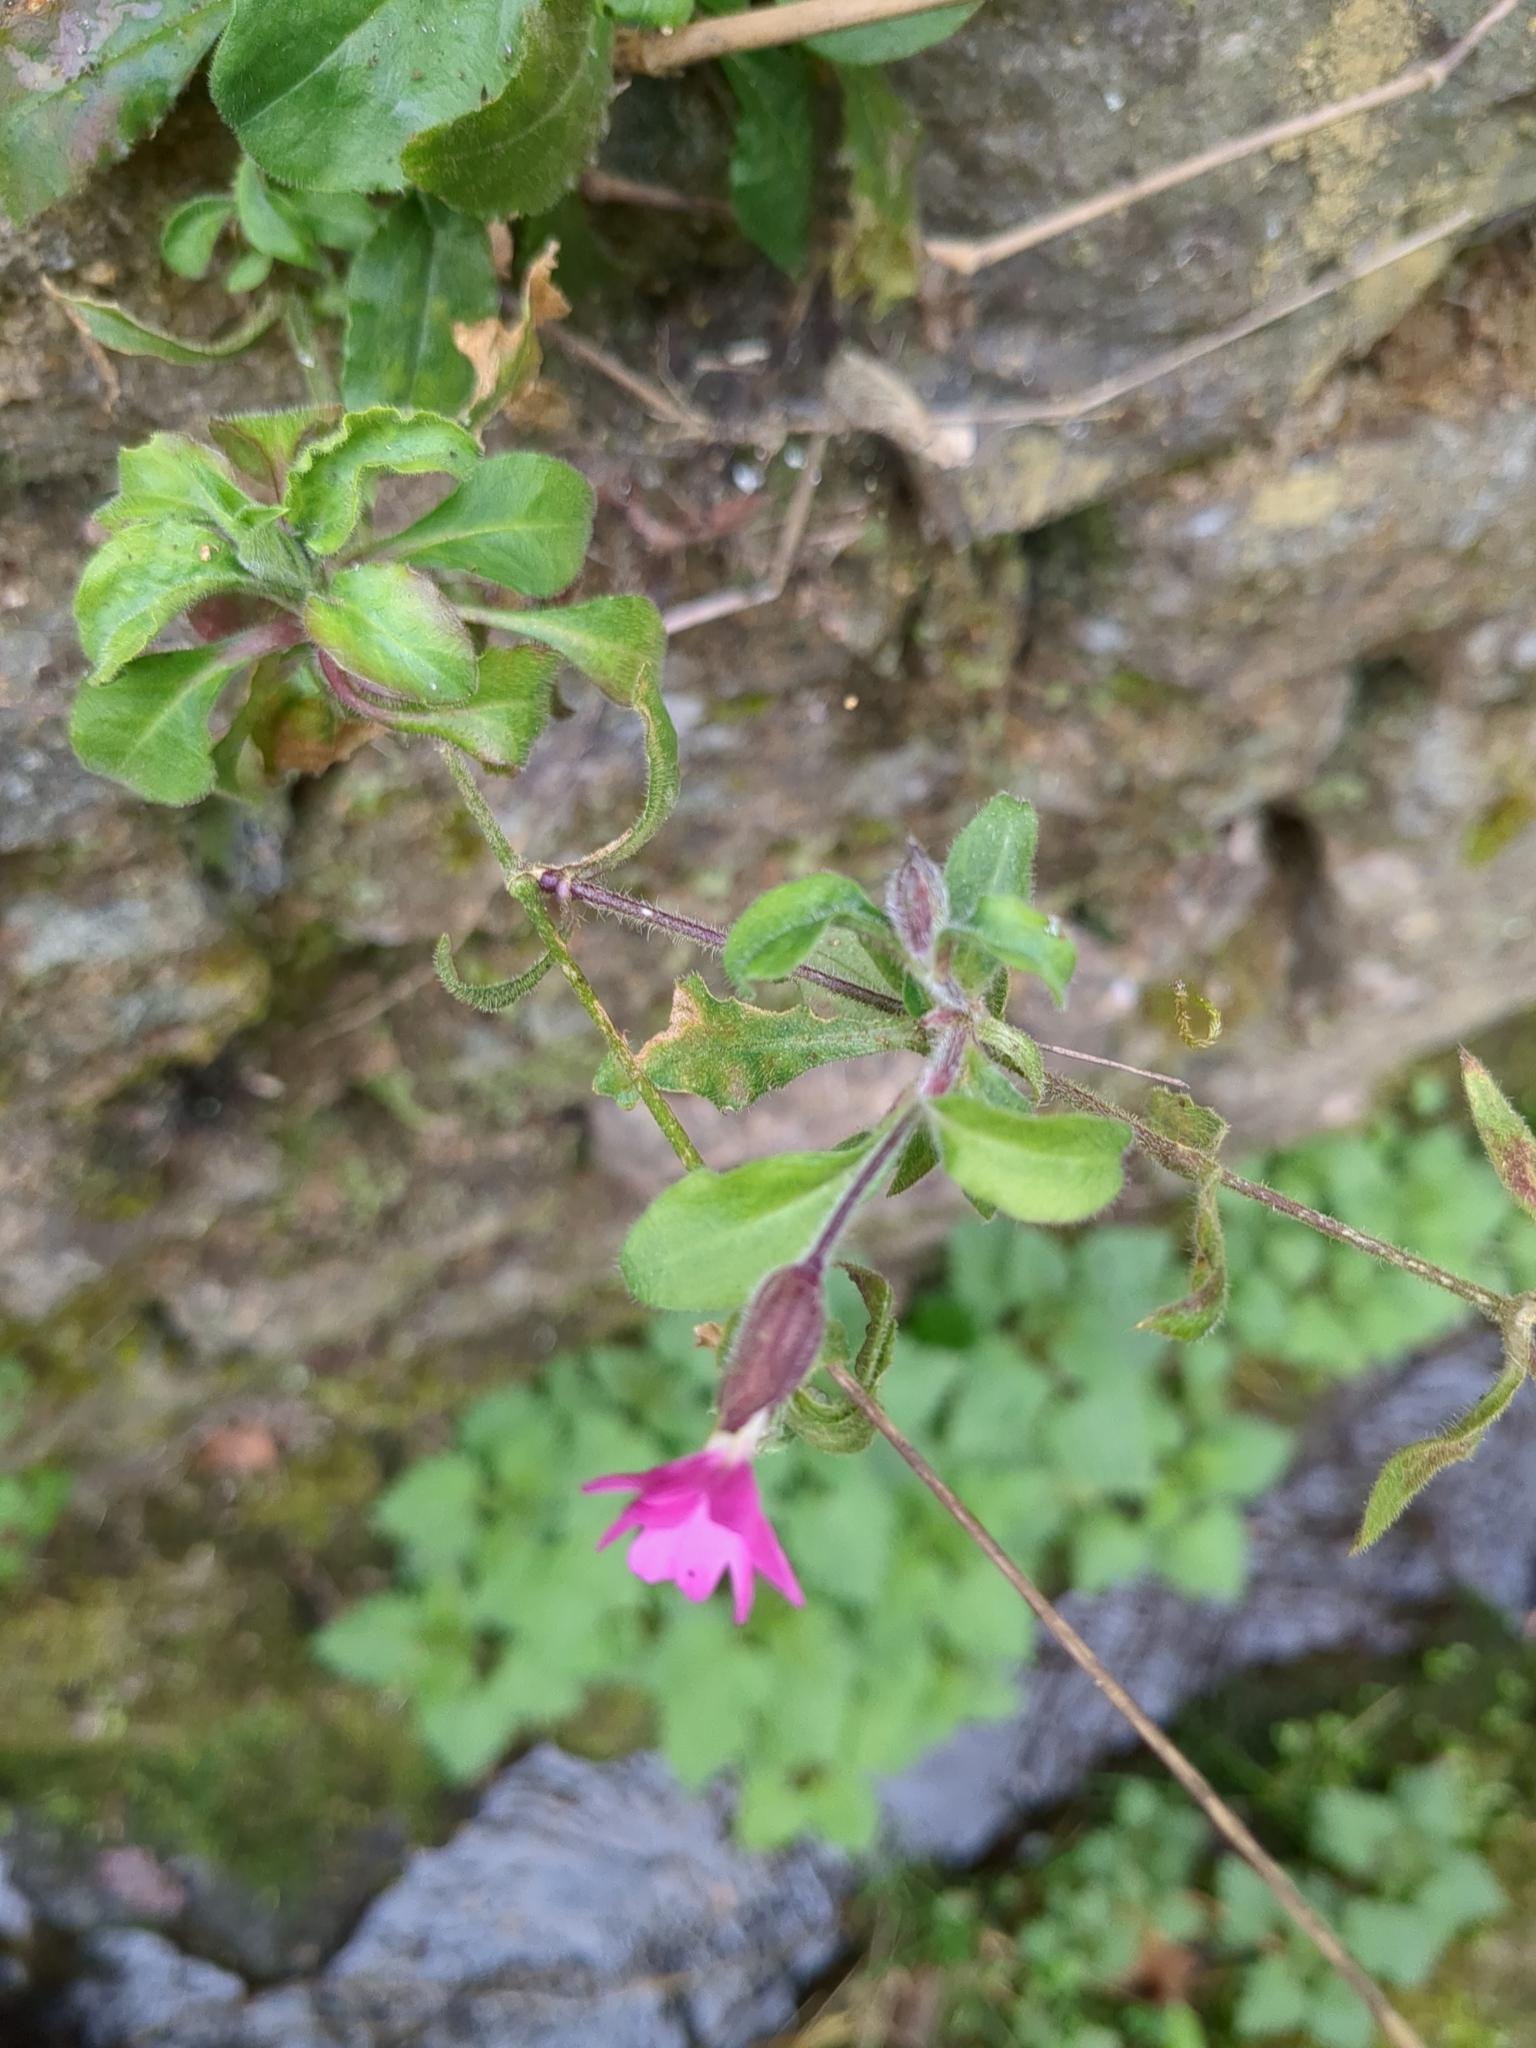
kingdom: Plantae
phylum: Tracheophyta
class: Magnoliopsida
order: Caryophyllales
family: Caryophyllaceae
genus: Silene
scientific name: Silene dioica
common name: Red campion
